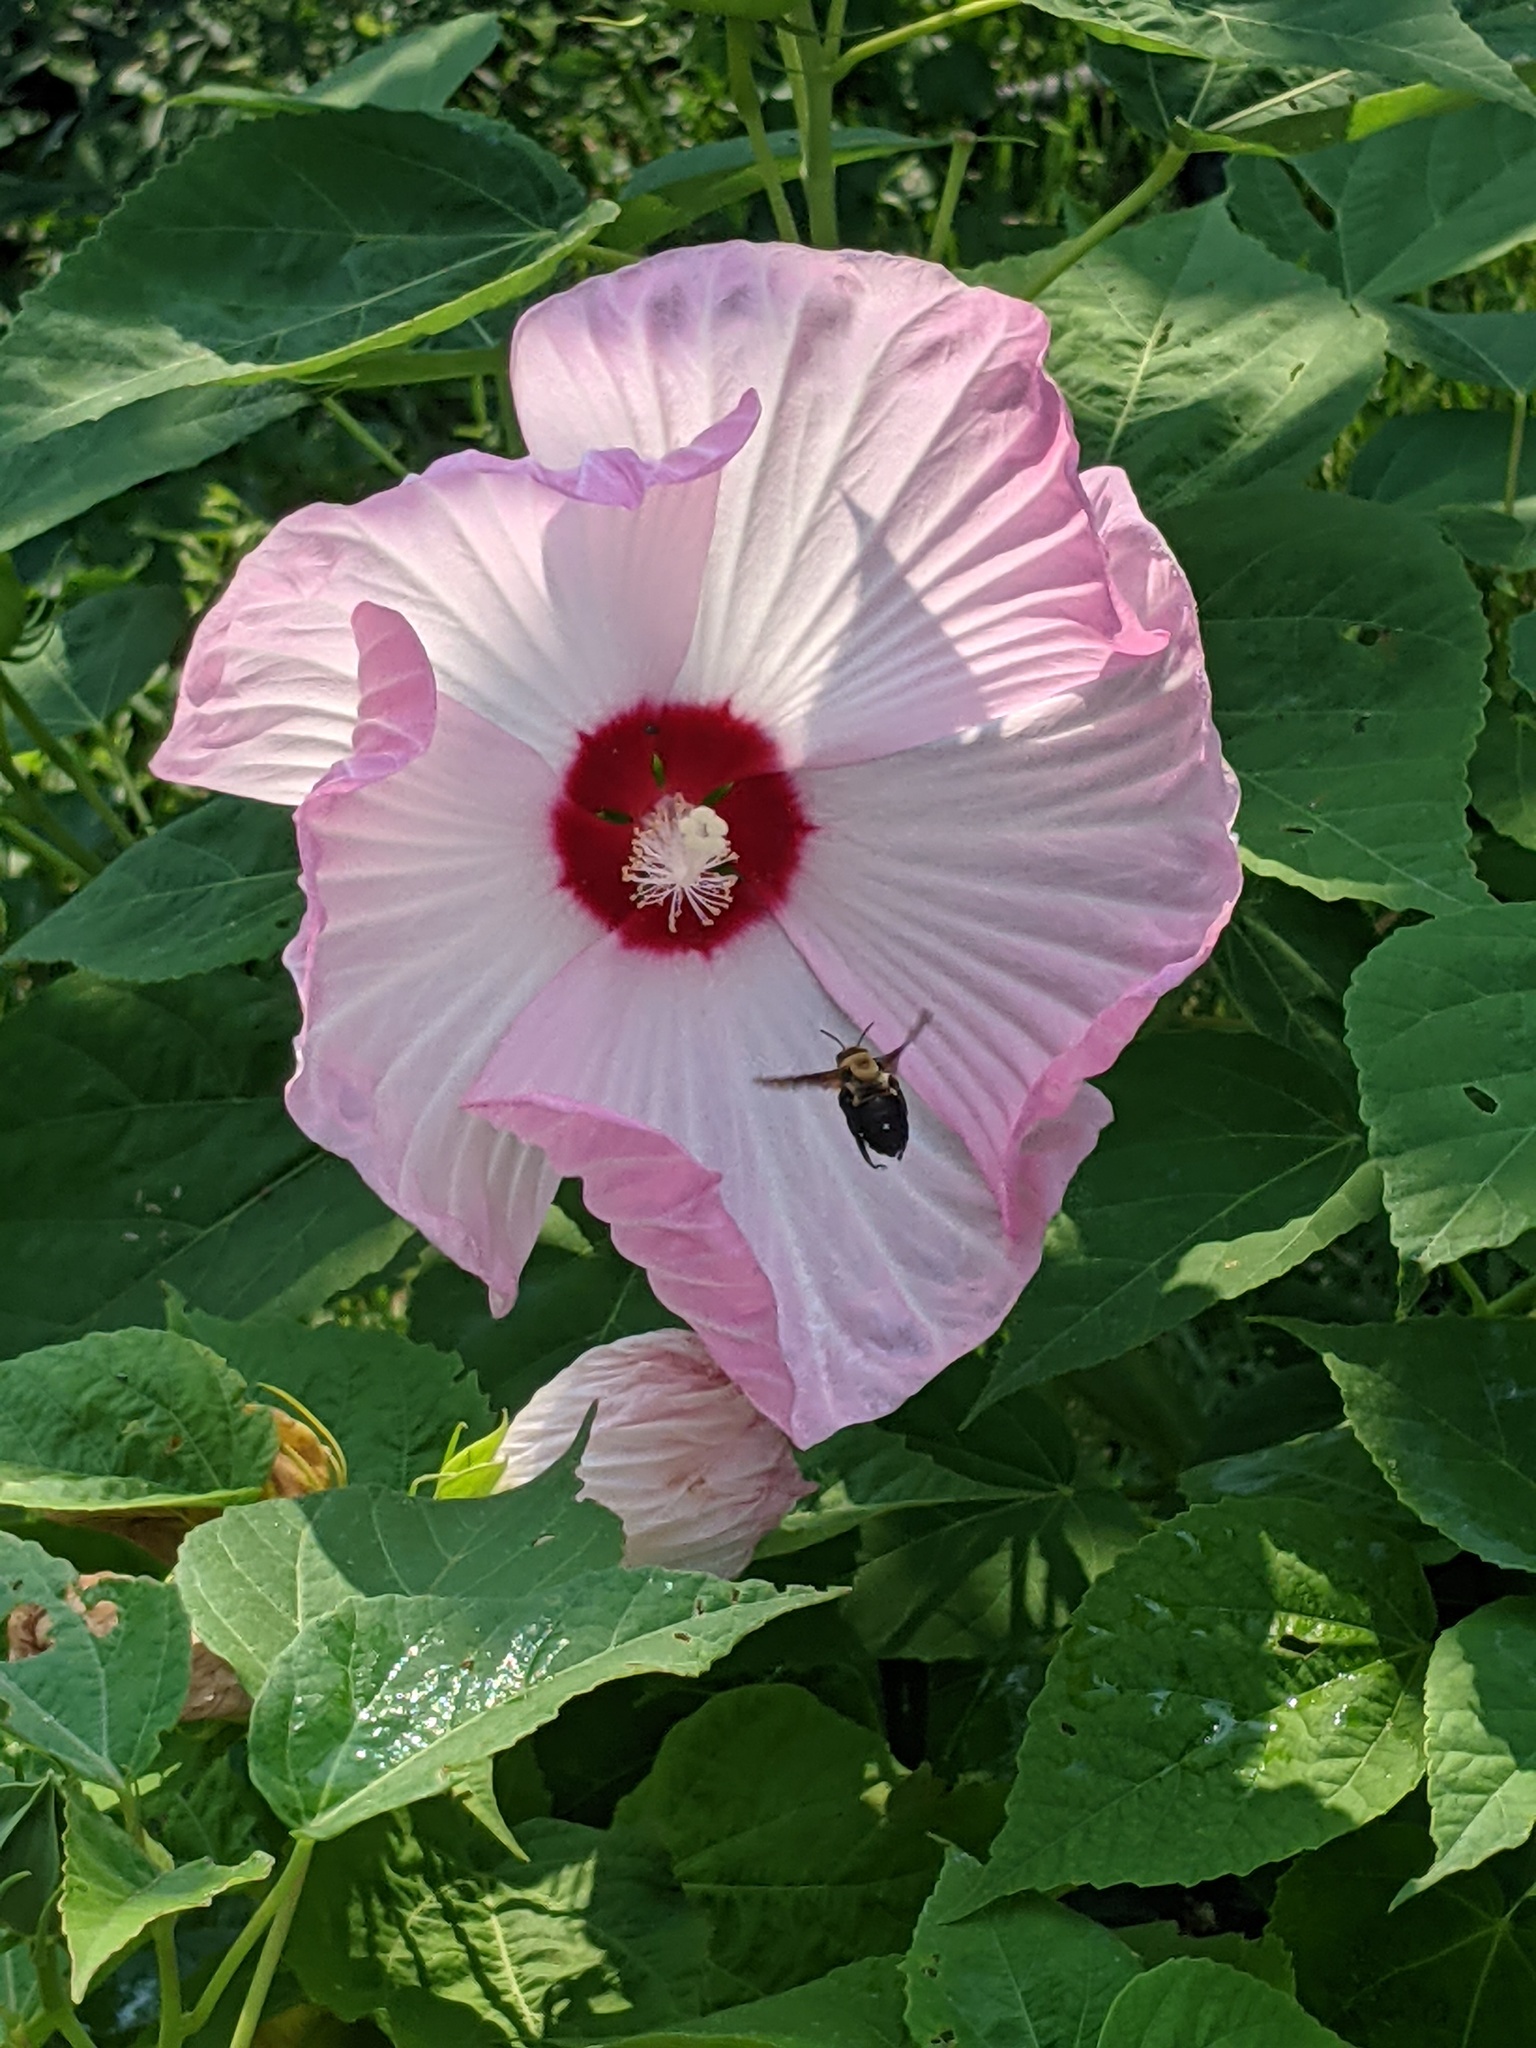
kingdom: Animalia
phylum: Arthropoda
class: Insecta
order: Hymenoptera
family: Apidae
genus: Ptilothrix
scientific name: Ptilothrix bombiformis
